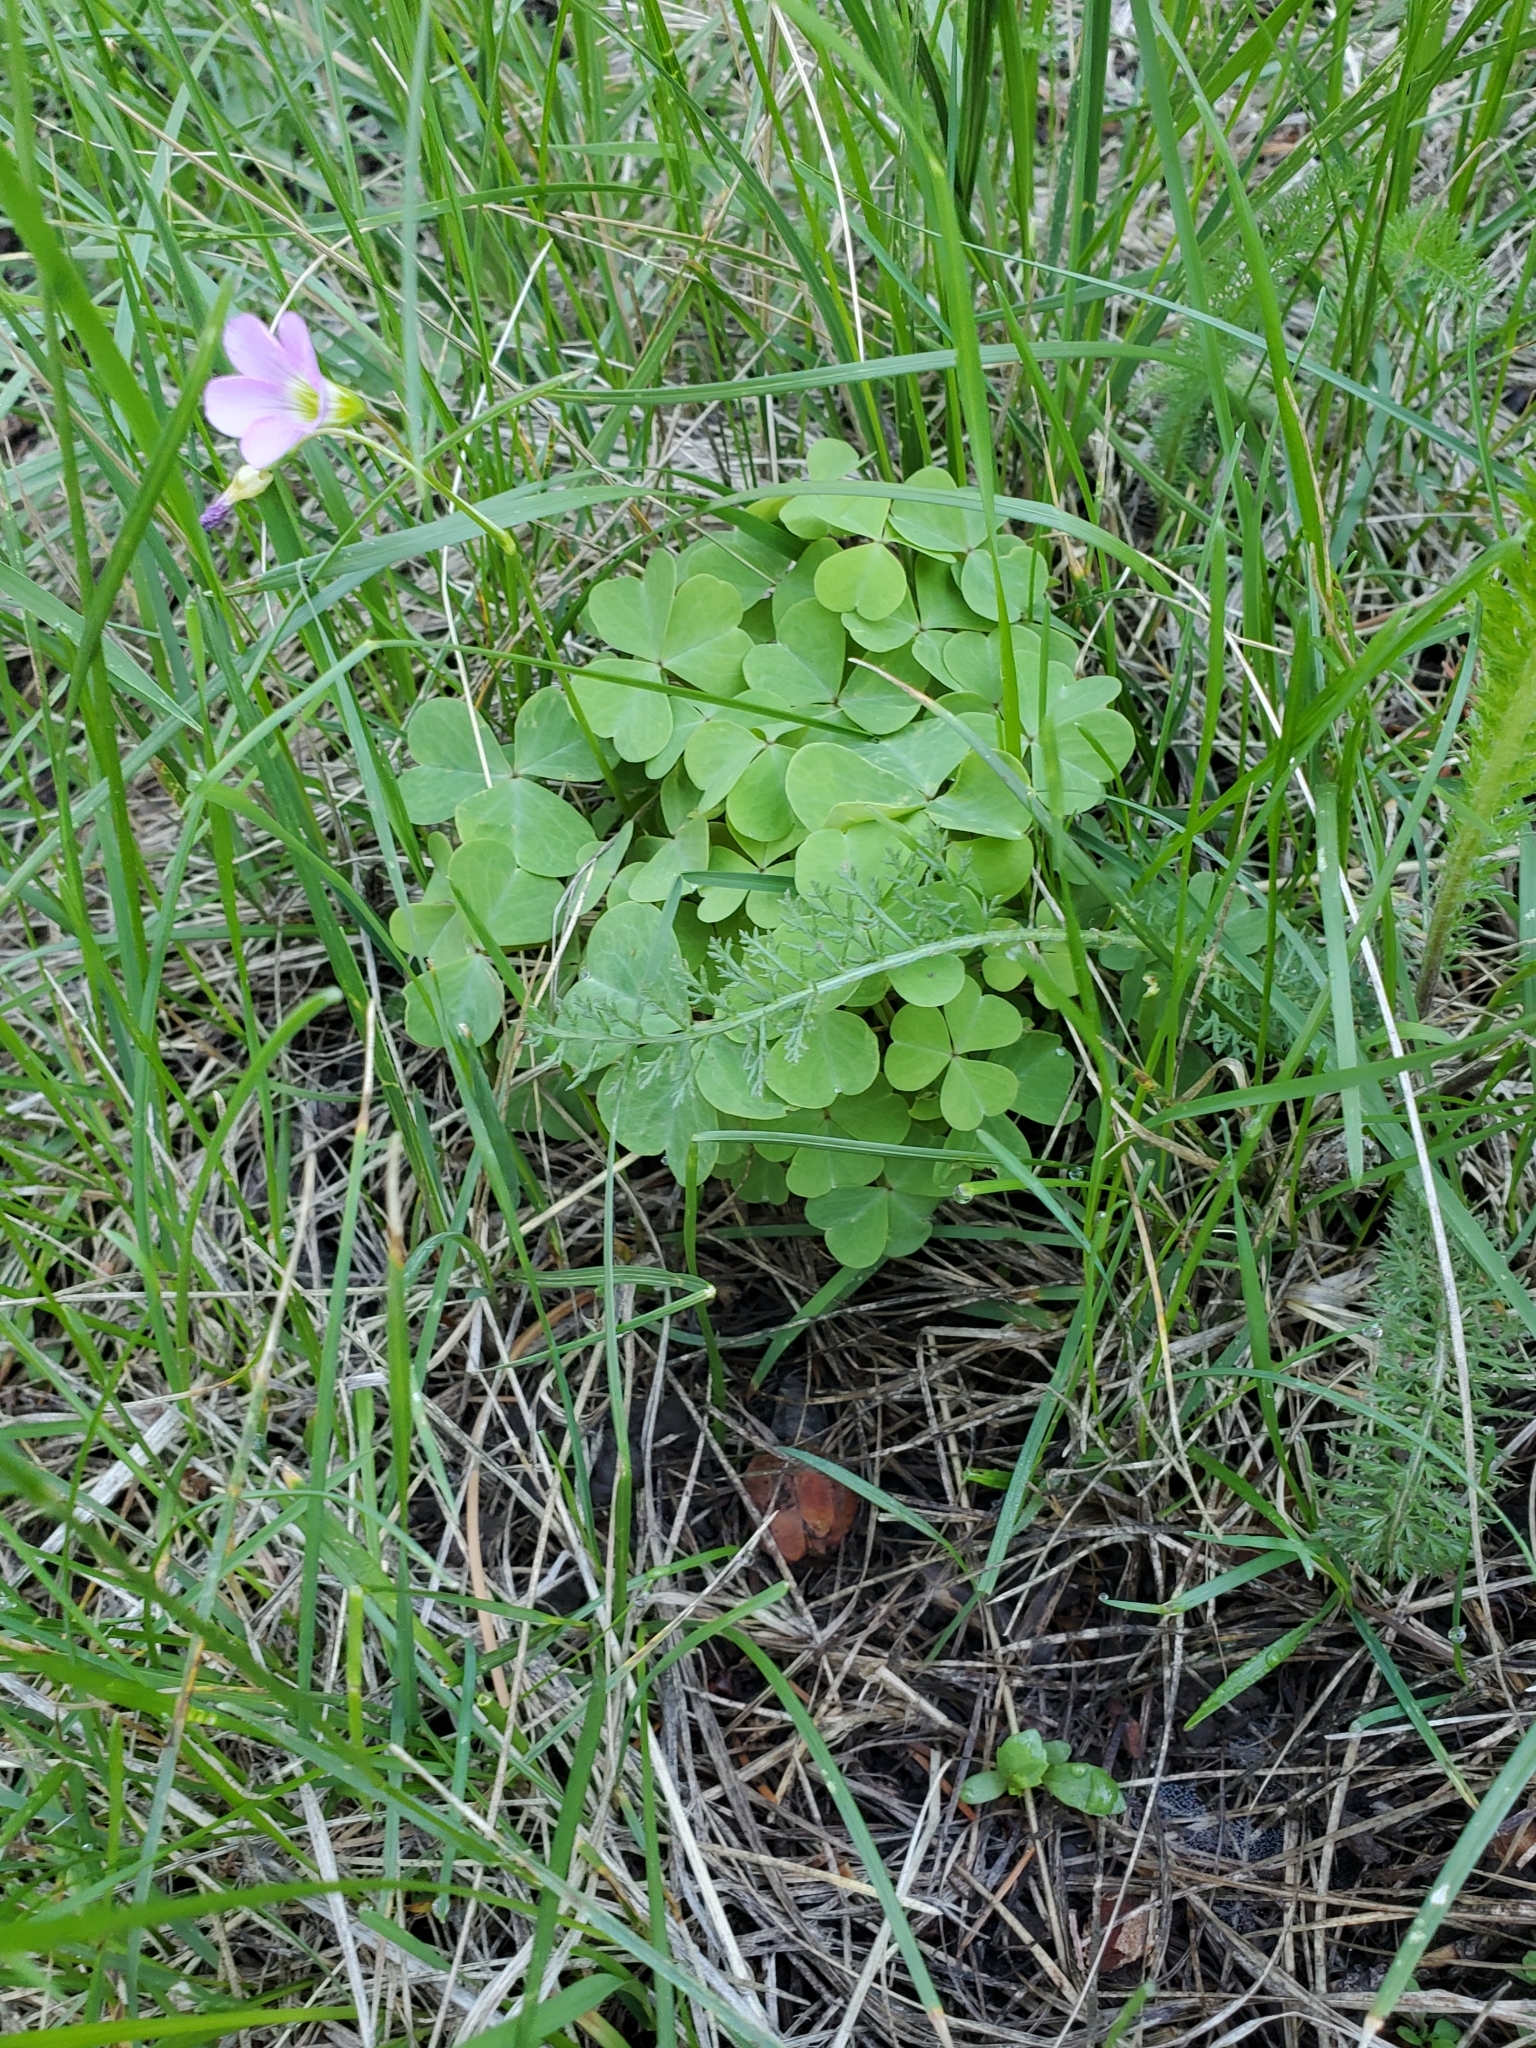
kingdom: Plantae
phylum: Tracheophyta
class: Magnoliopsida
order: Oxalidales
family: Oxalidaceae
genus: Oxalis
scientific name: Oxalis metcalfei
